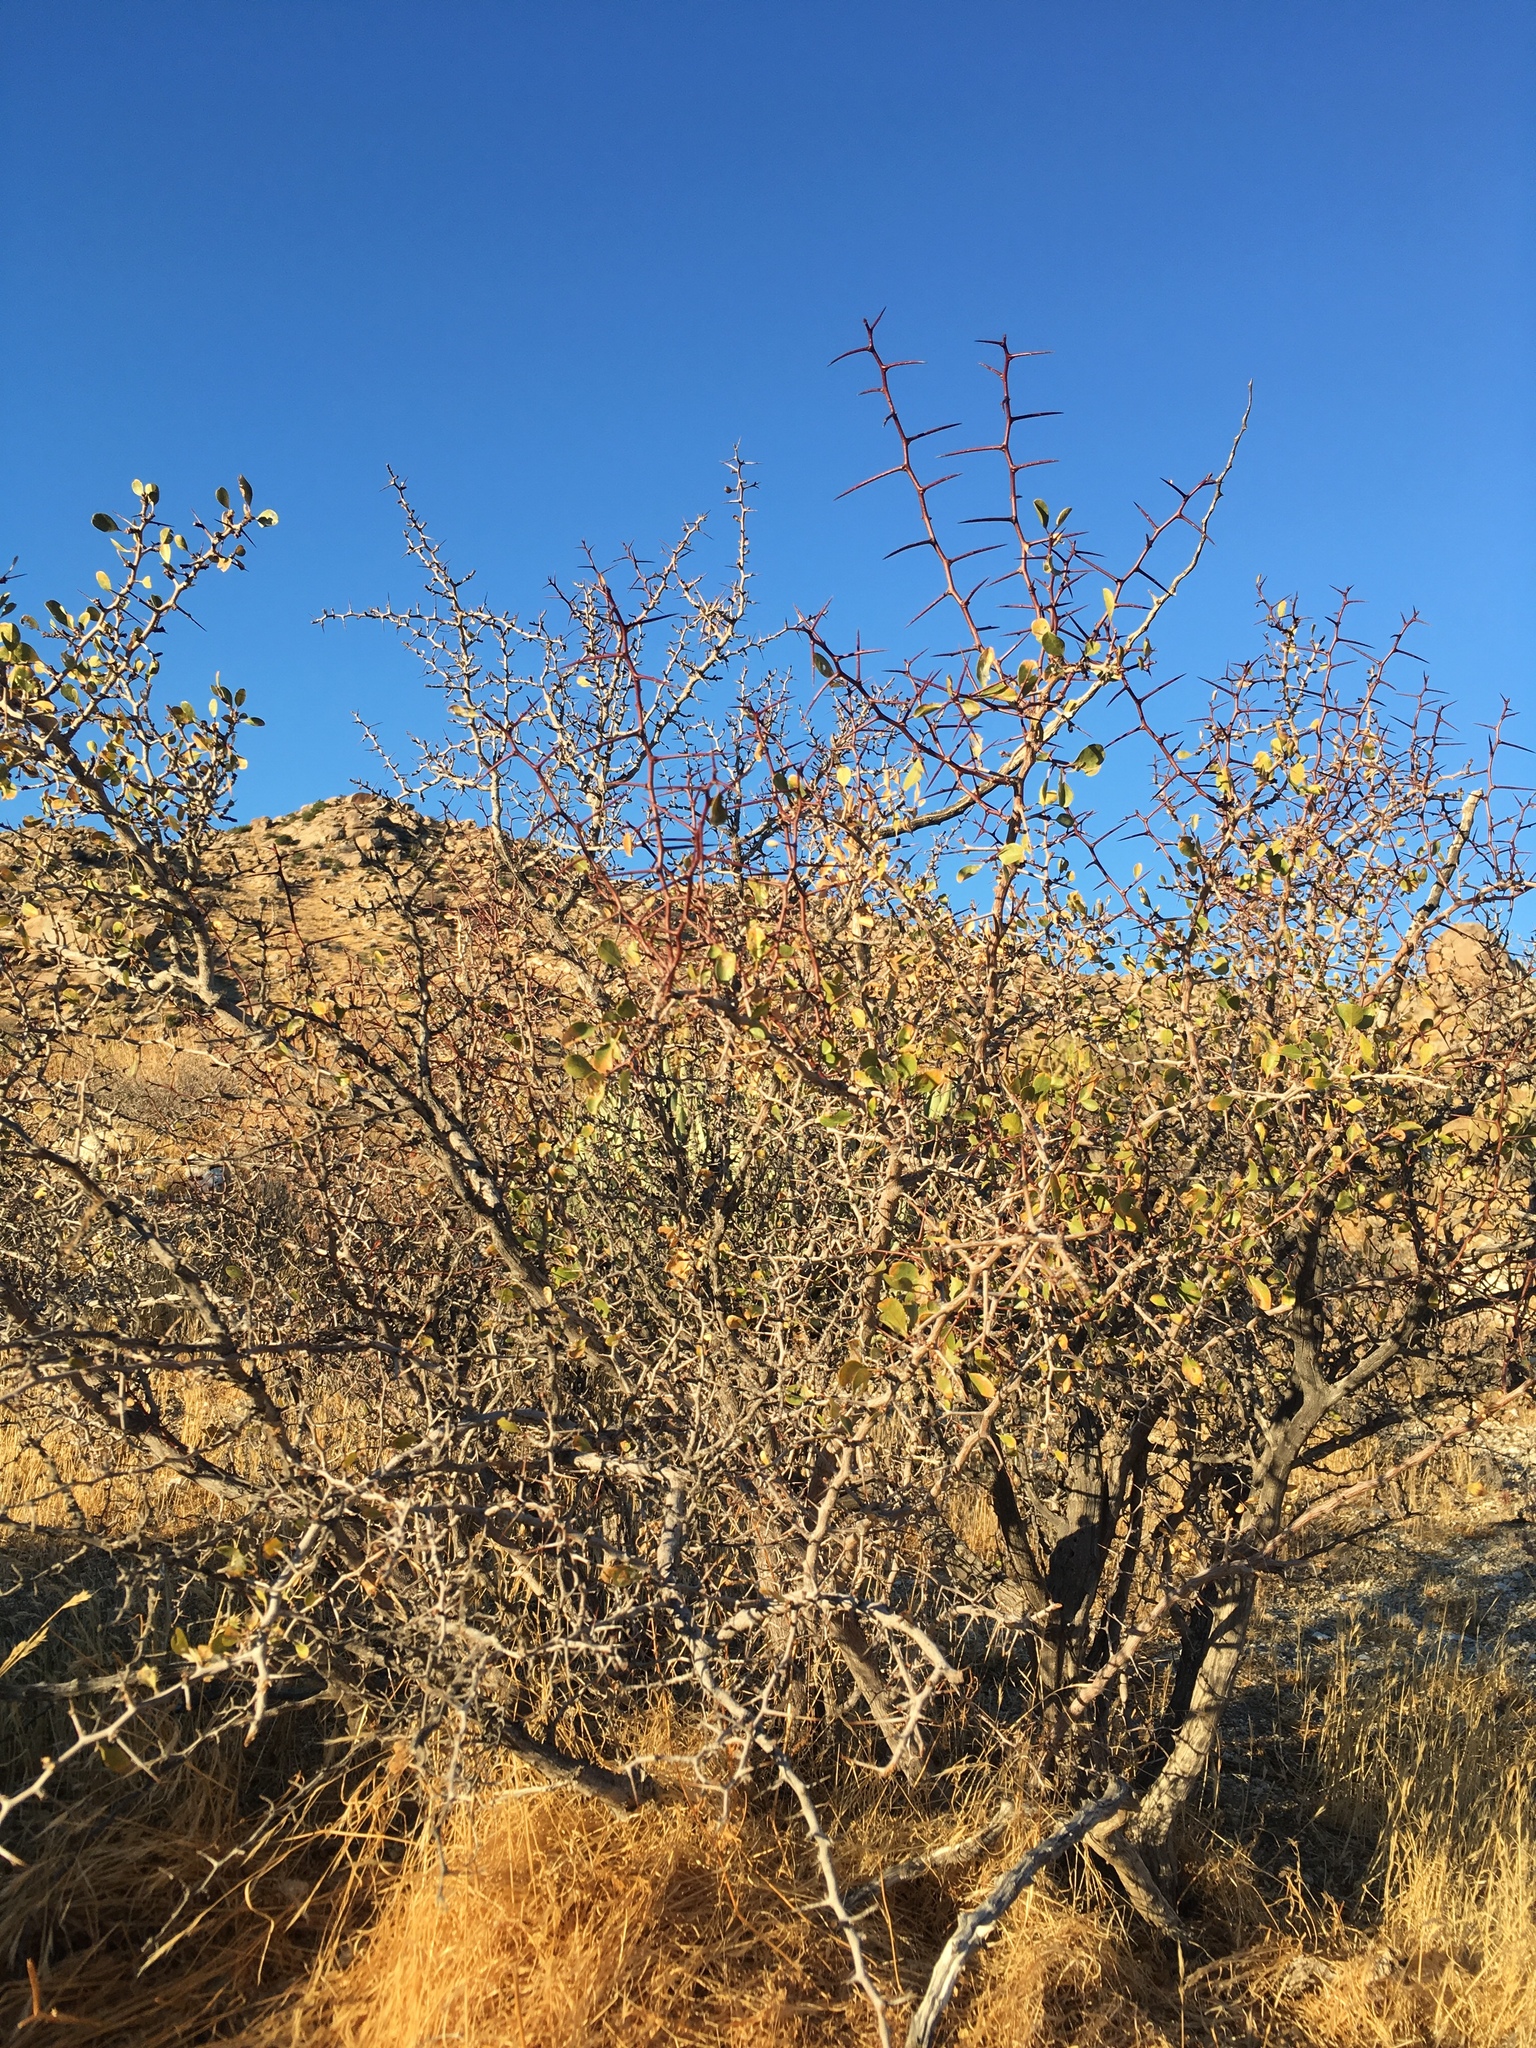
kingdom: Plantae
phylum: Tracheophyta
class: Magnoliopsida
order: Rosales
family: Rhamnaceae
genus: Pseudoziziphus
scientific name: Pseudoziziphus parryi
